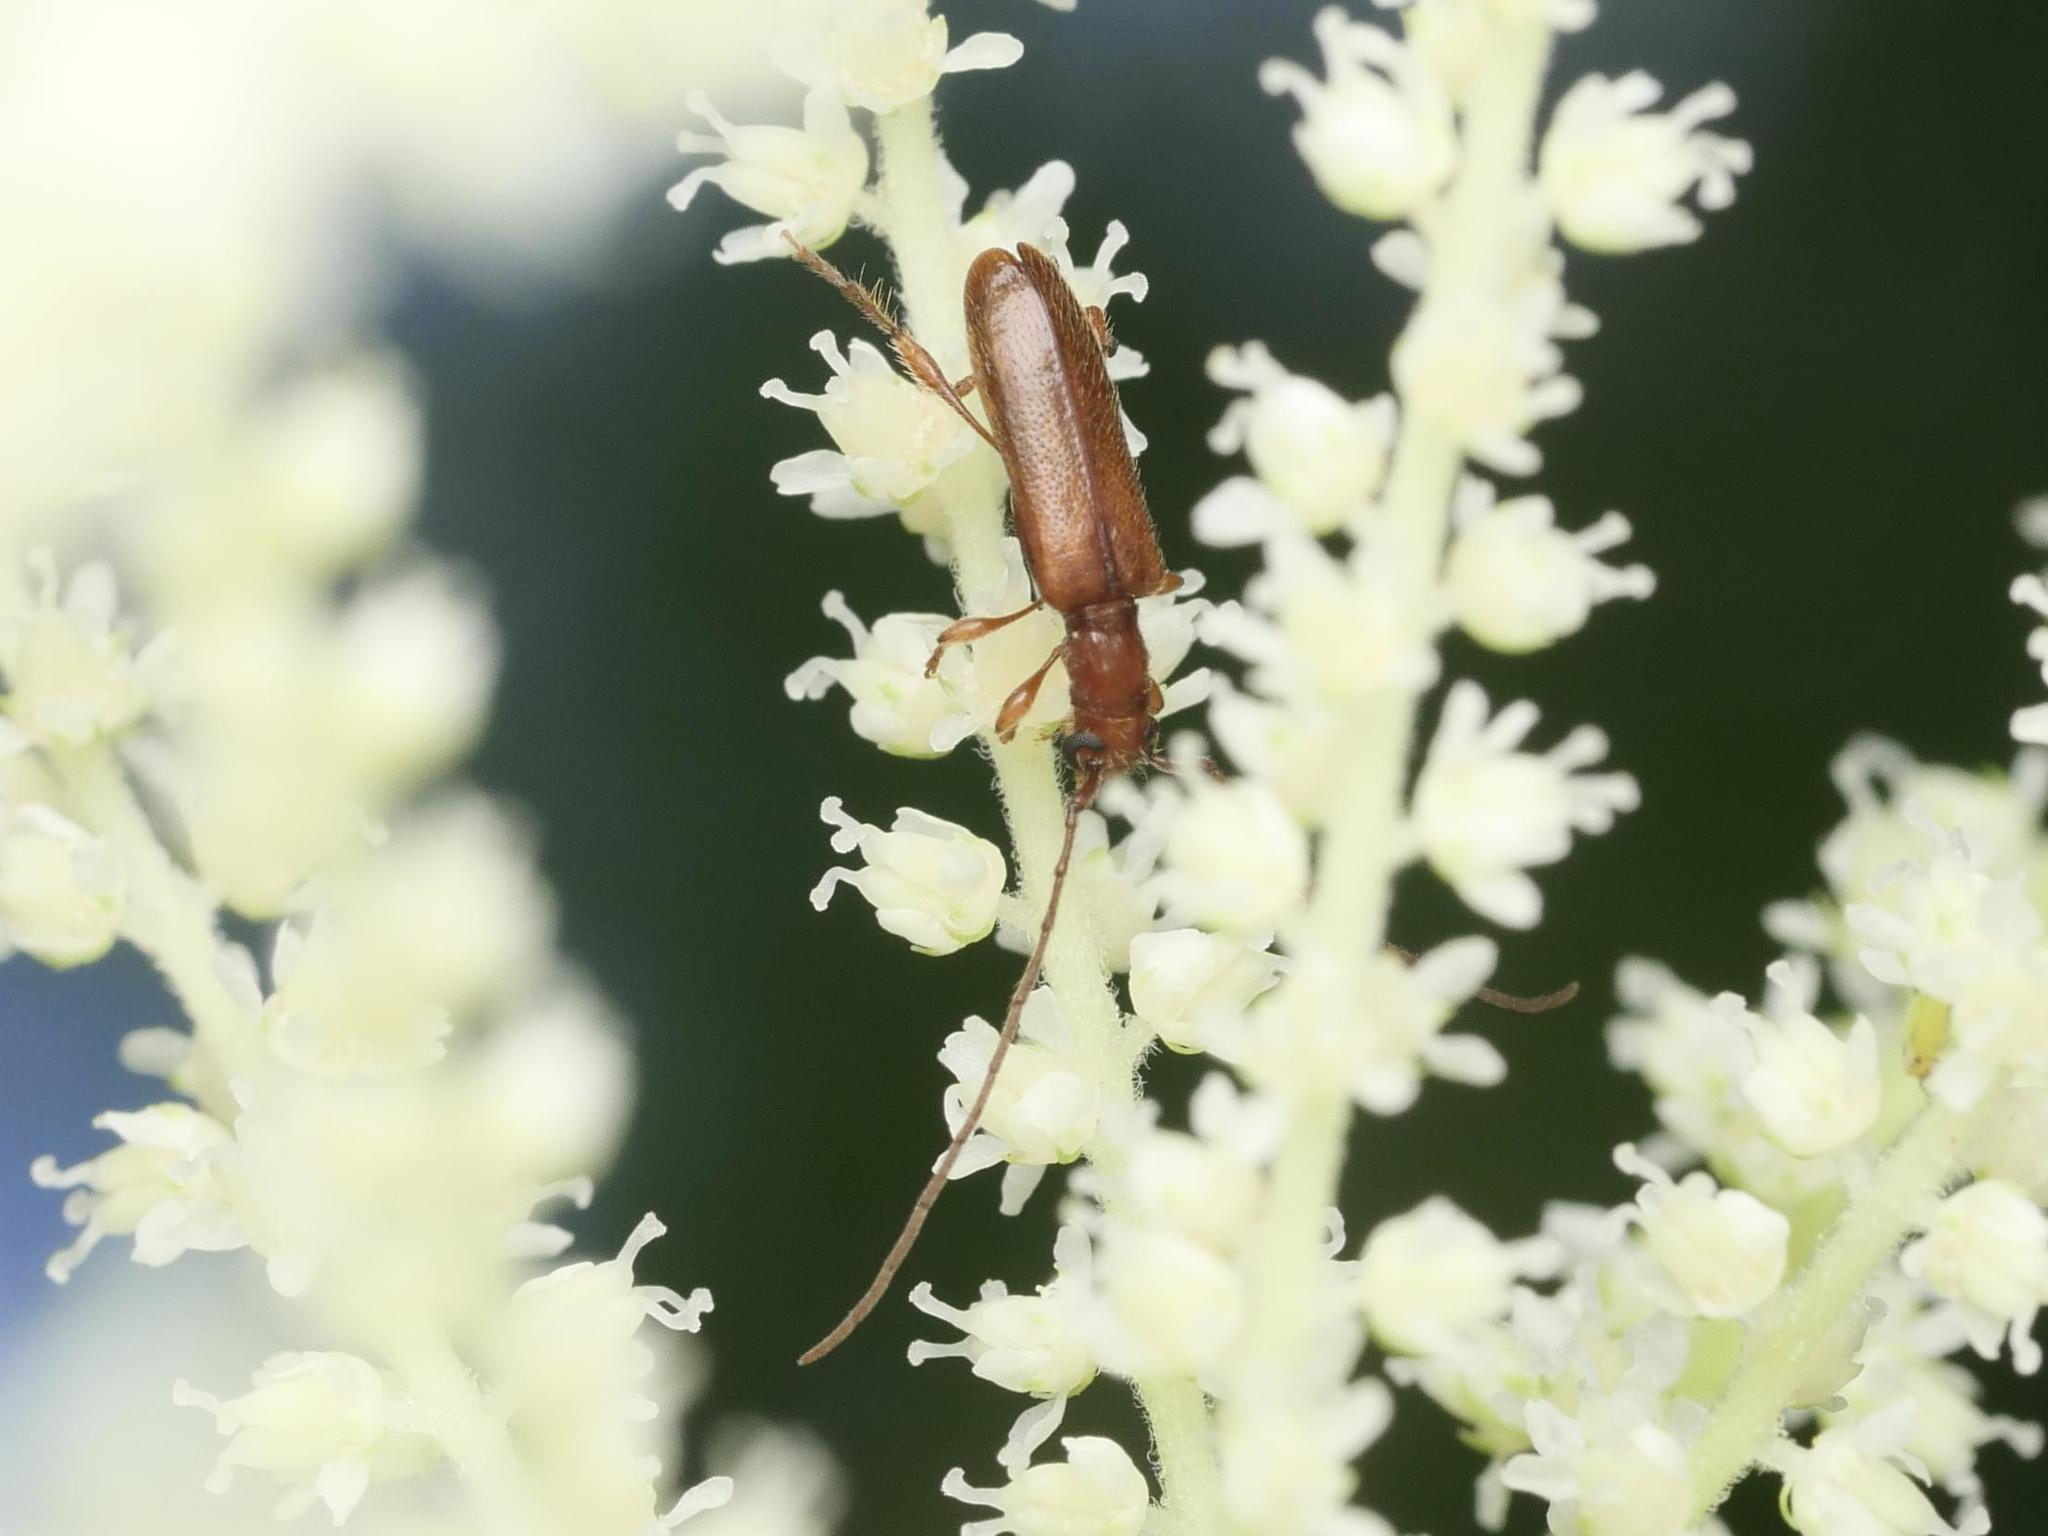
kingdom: Animalia
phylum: Arthropoda
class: Insecta
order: Coleoptera
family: Cerambycidae
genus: Obrium
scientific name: Obrium brunneum
